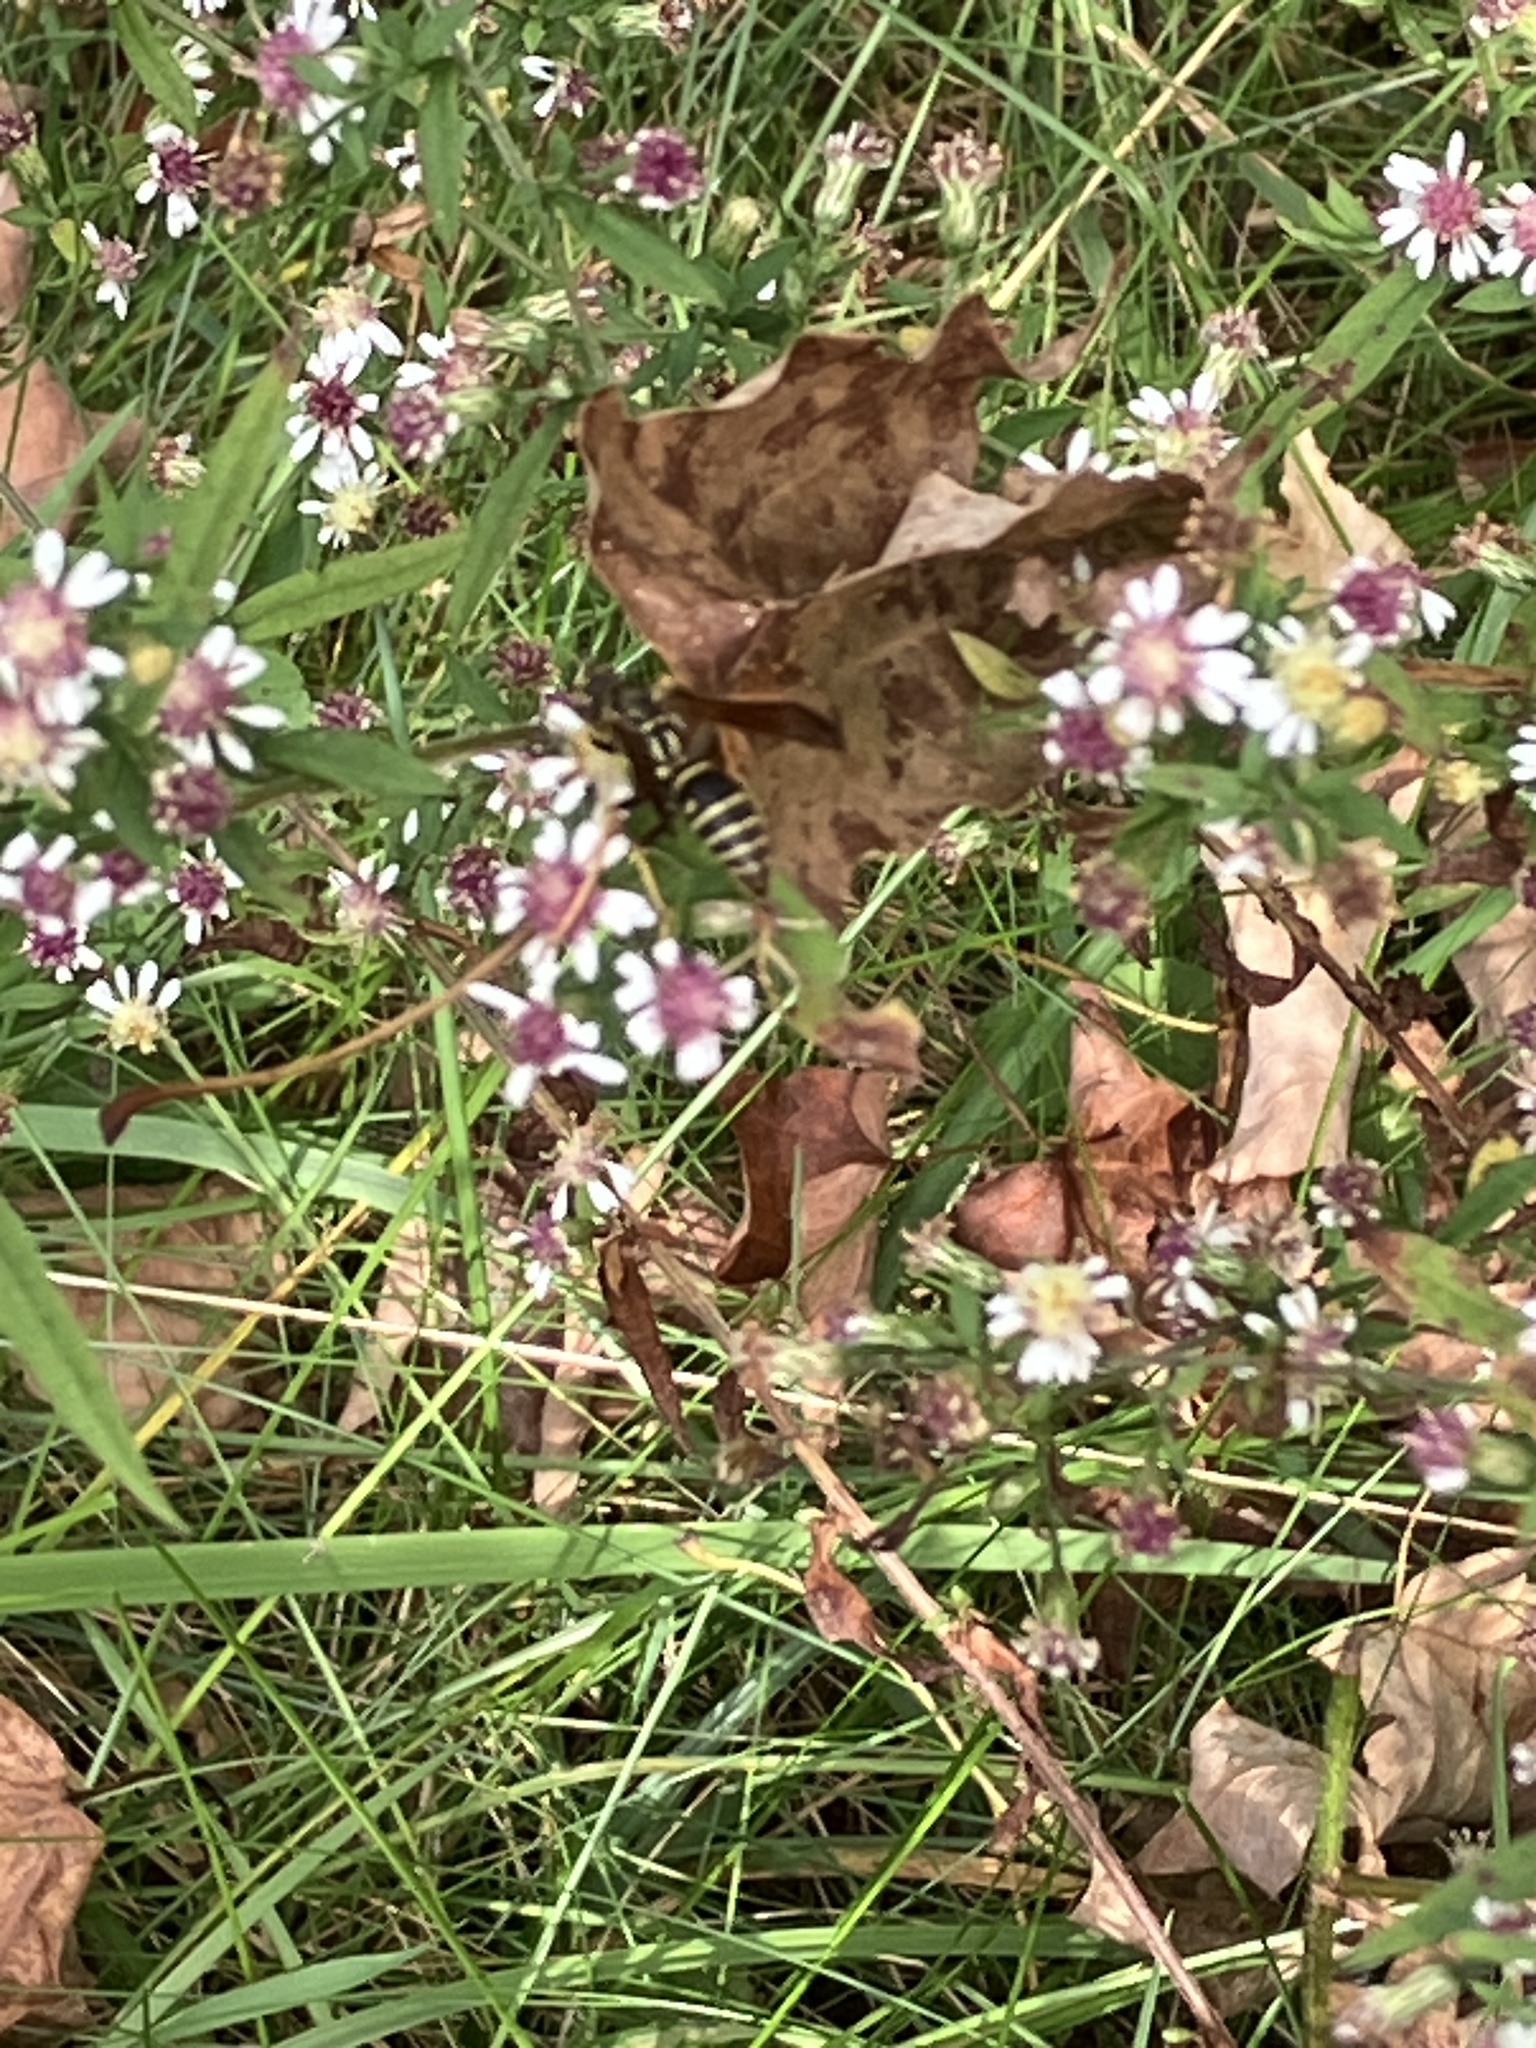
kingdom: Animalia
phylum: Arthropoda
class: Insecta
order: Hymenoptera
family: Eumenidae
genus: Polistes
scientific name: Polistes fuscatus
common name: Dark paper wasp
